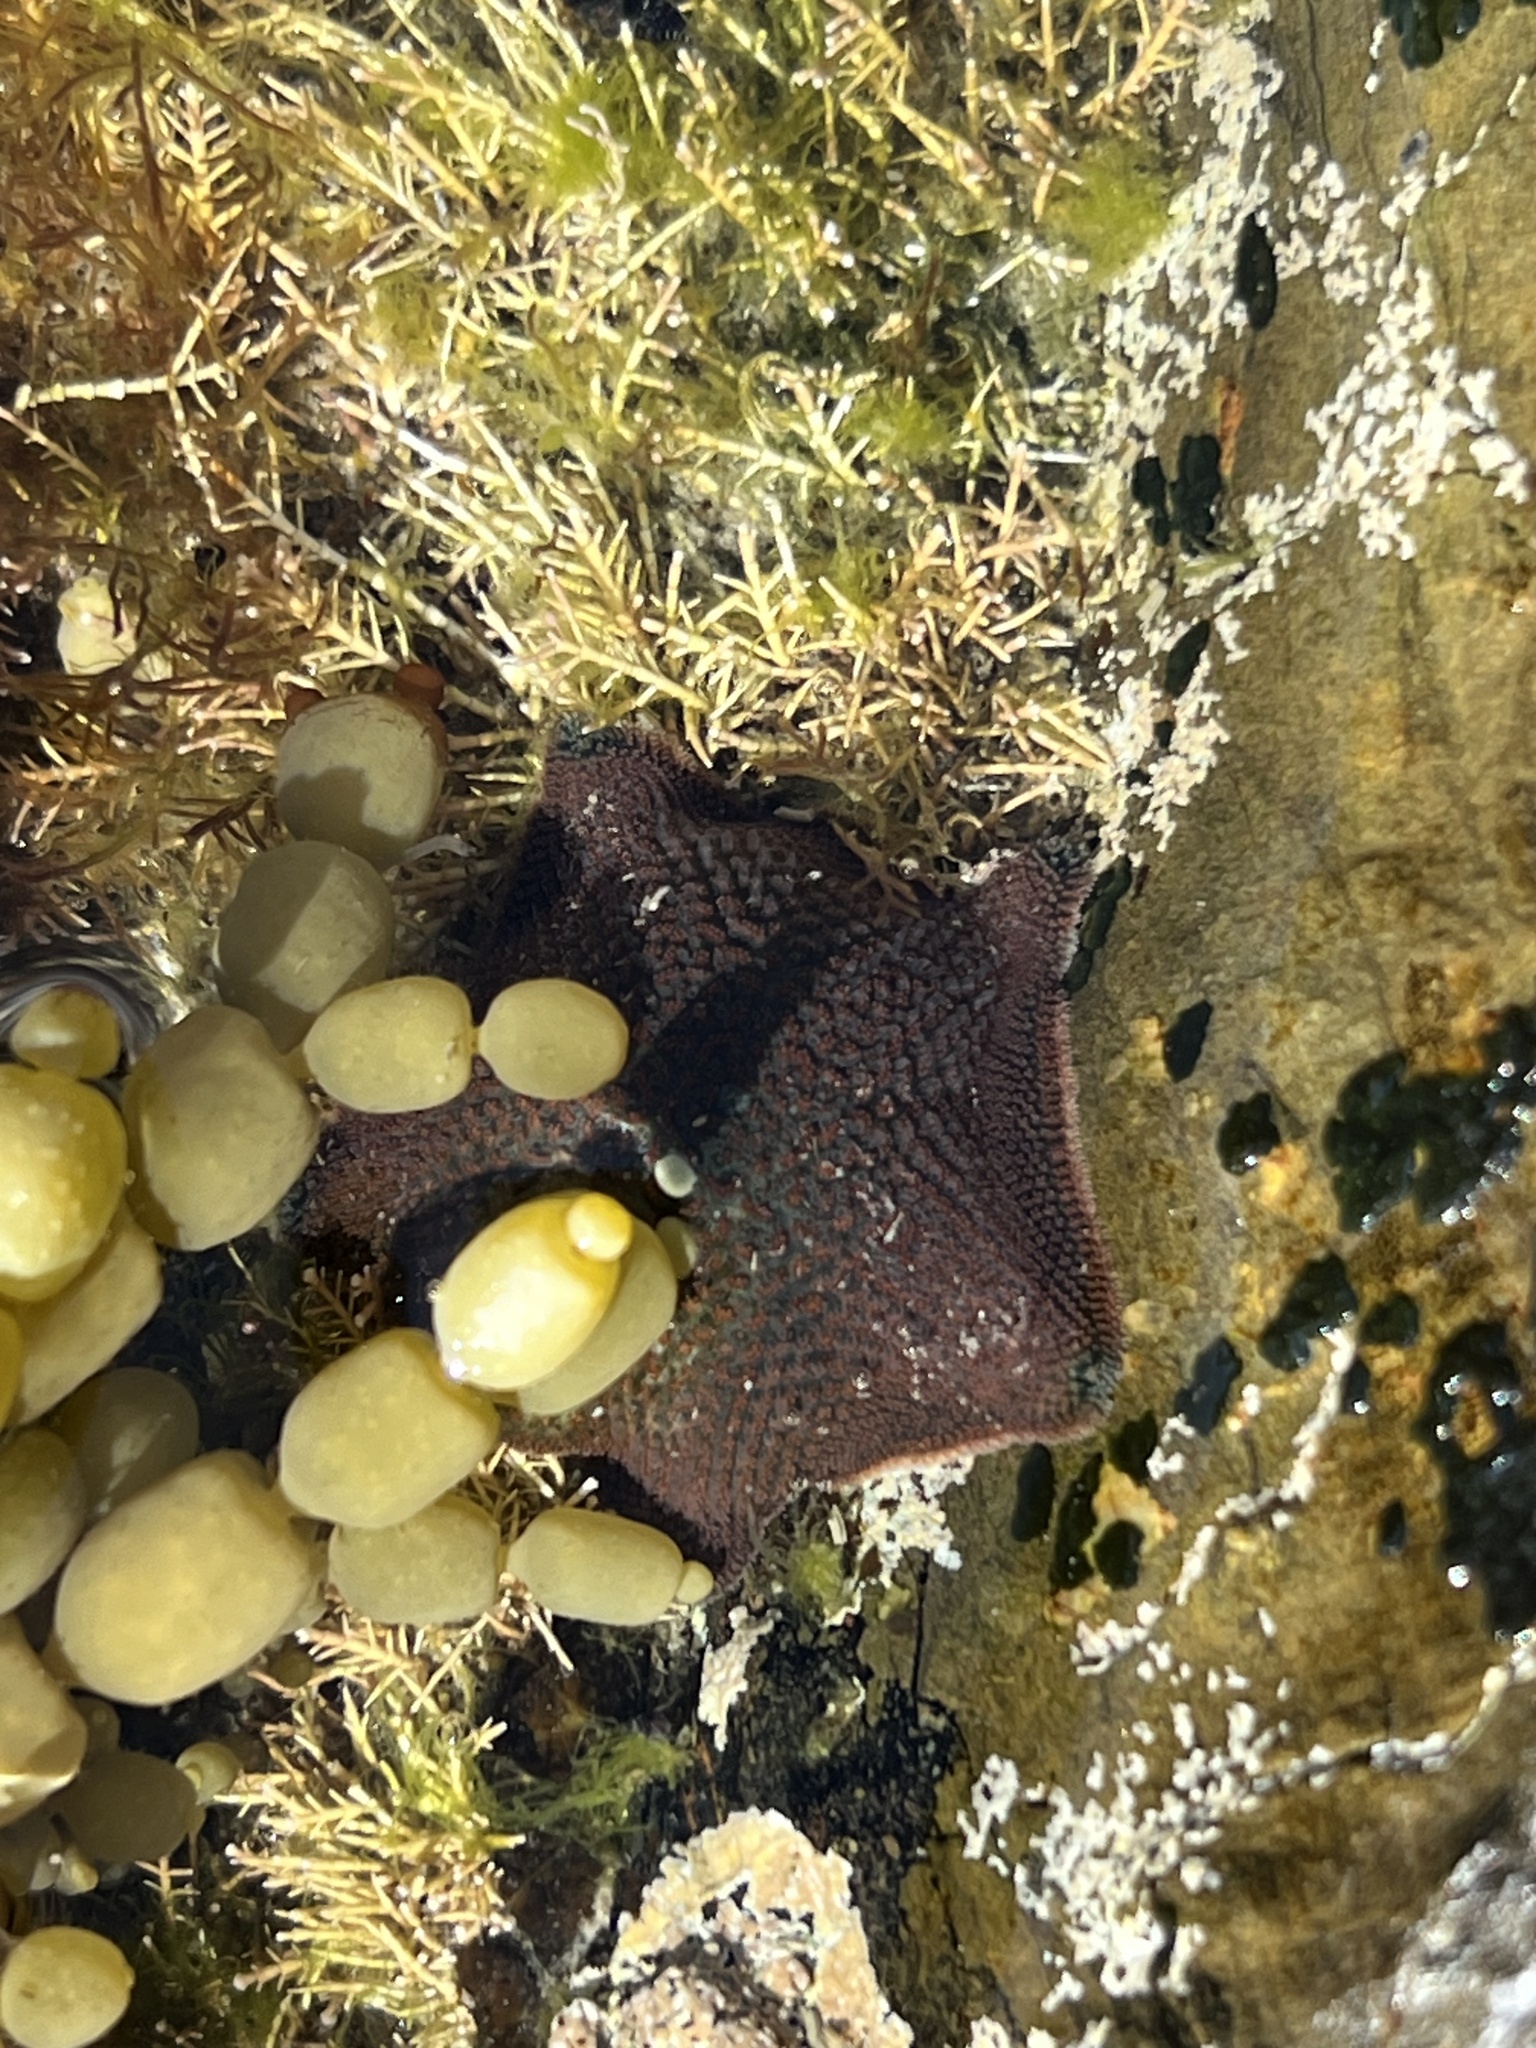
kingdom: Animalia
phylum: Echinodermata
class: Asteroidea
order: Valvatida
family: Asterinidae
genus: Patiriella
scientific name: Patiriella regularis
